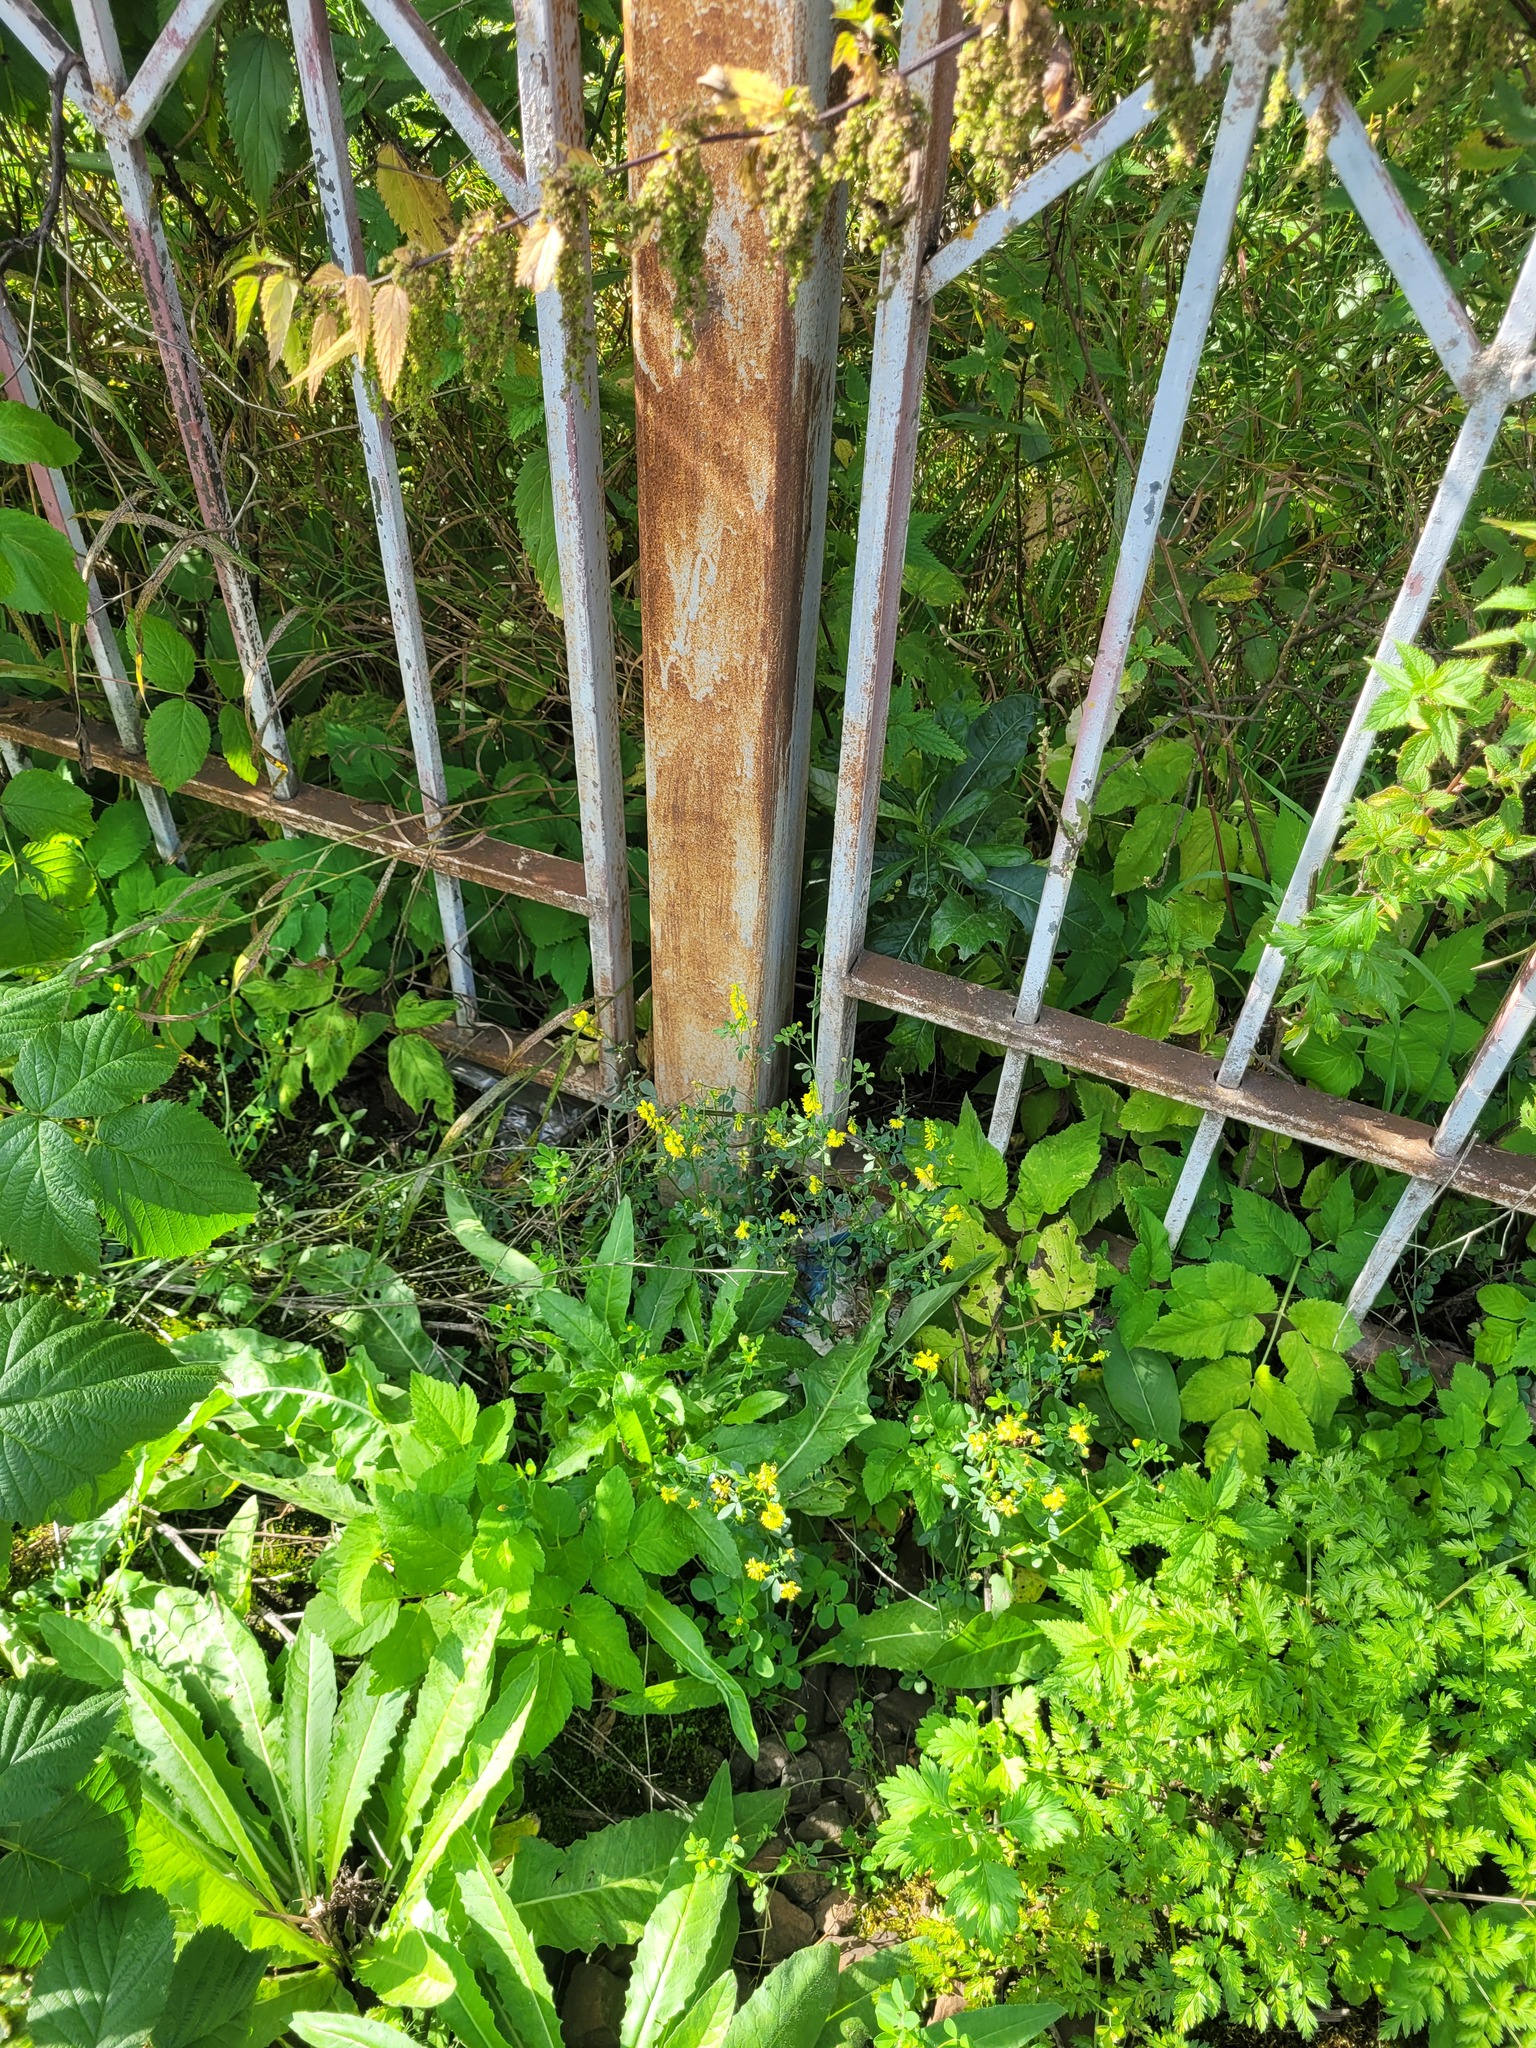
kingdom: Plantae
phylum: Tracheophyta
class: Magnoliopsida
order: Fabales
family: Fabaceae
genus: Melilotus
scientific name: Melilotus officinalis
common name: Sweetclover
